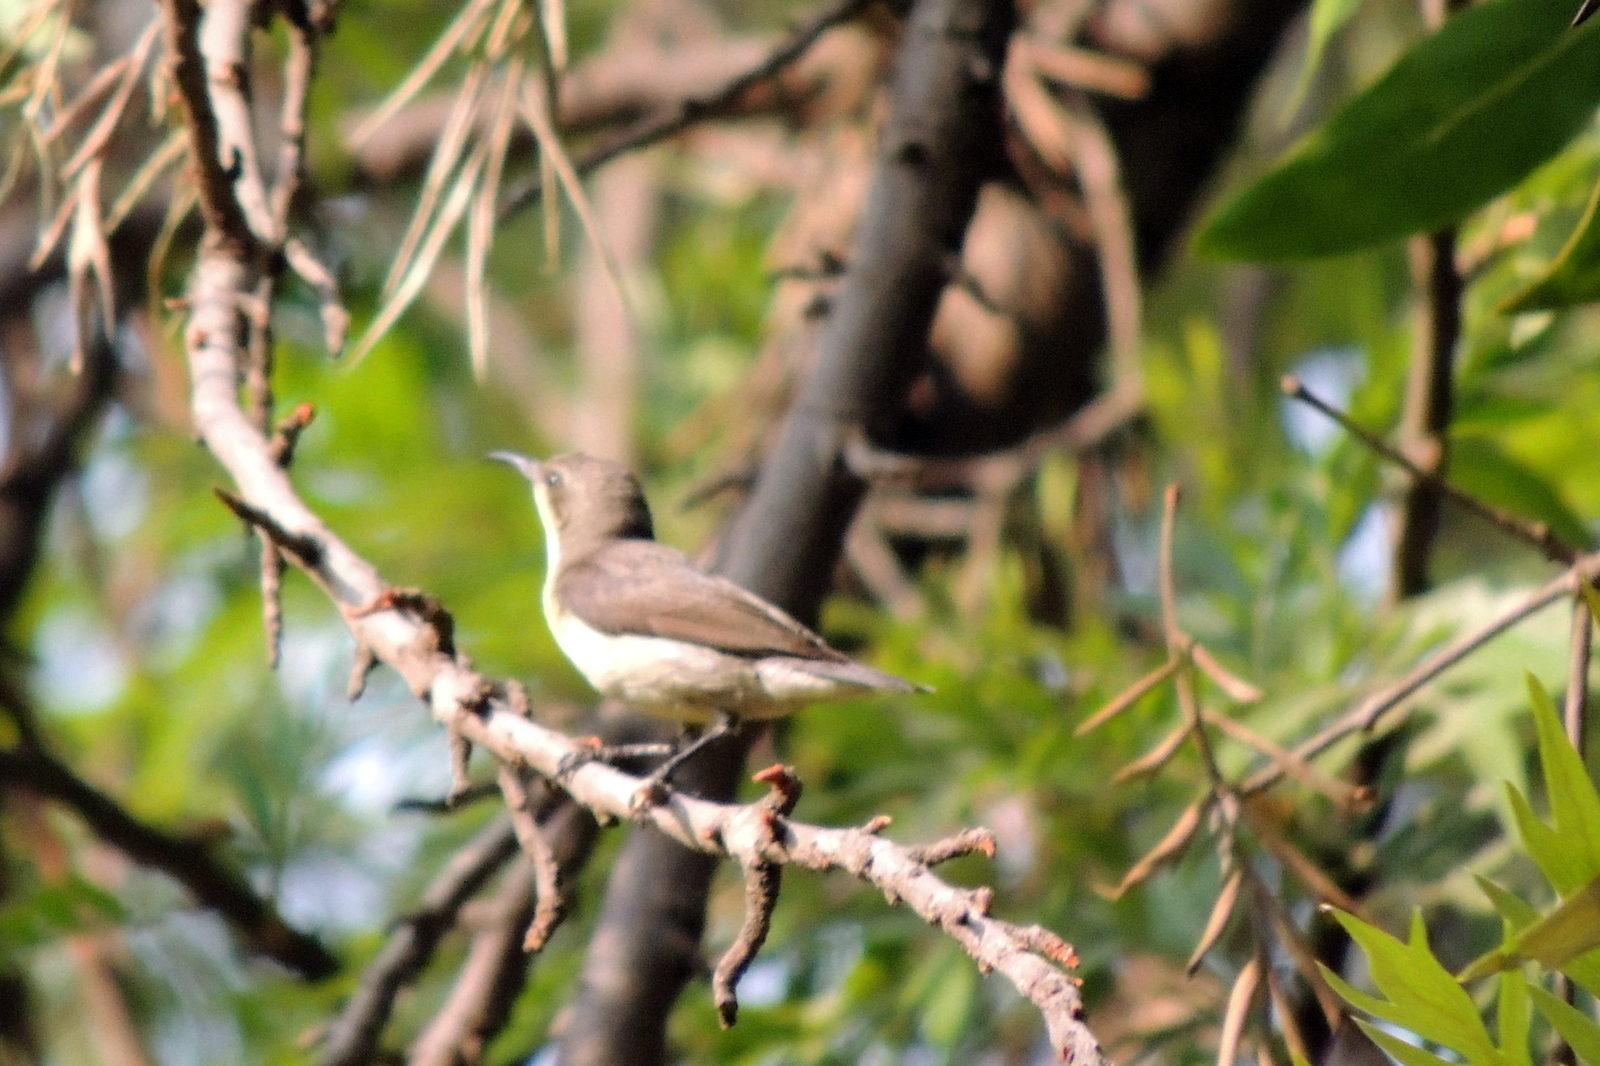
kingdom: Animalia
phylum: Chordata
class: Aves
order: Passeriformes
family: Nectariniidae
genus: Cinnyris
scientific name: Cinnyris asiaticus
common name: Purple sunbird
